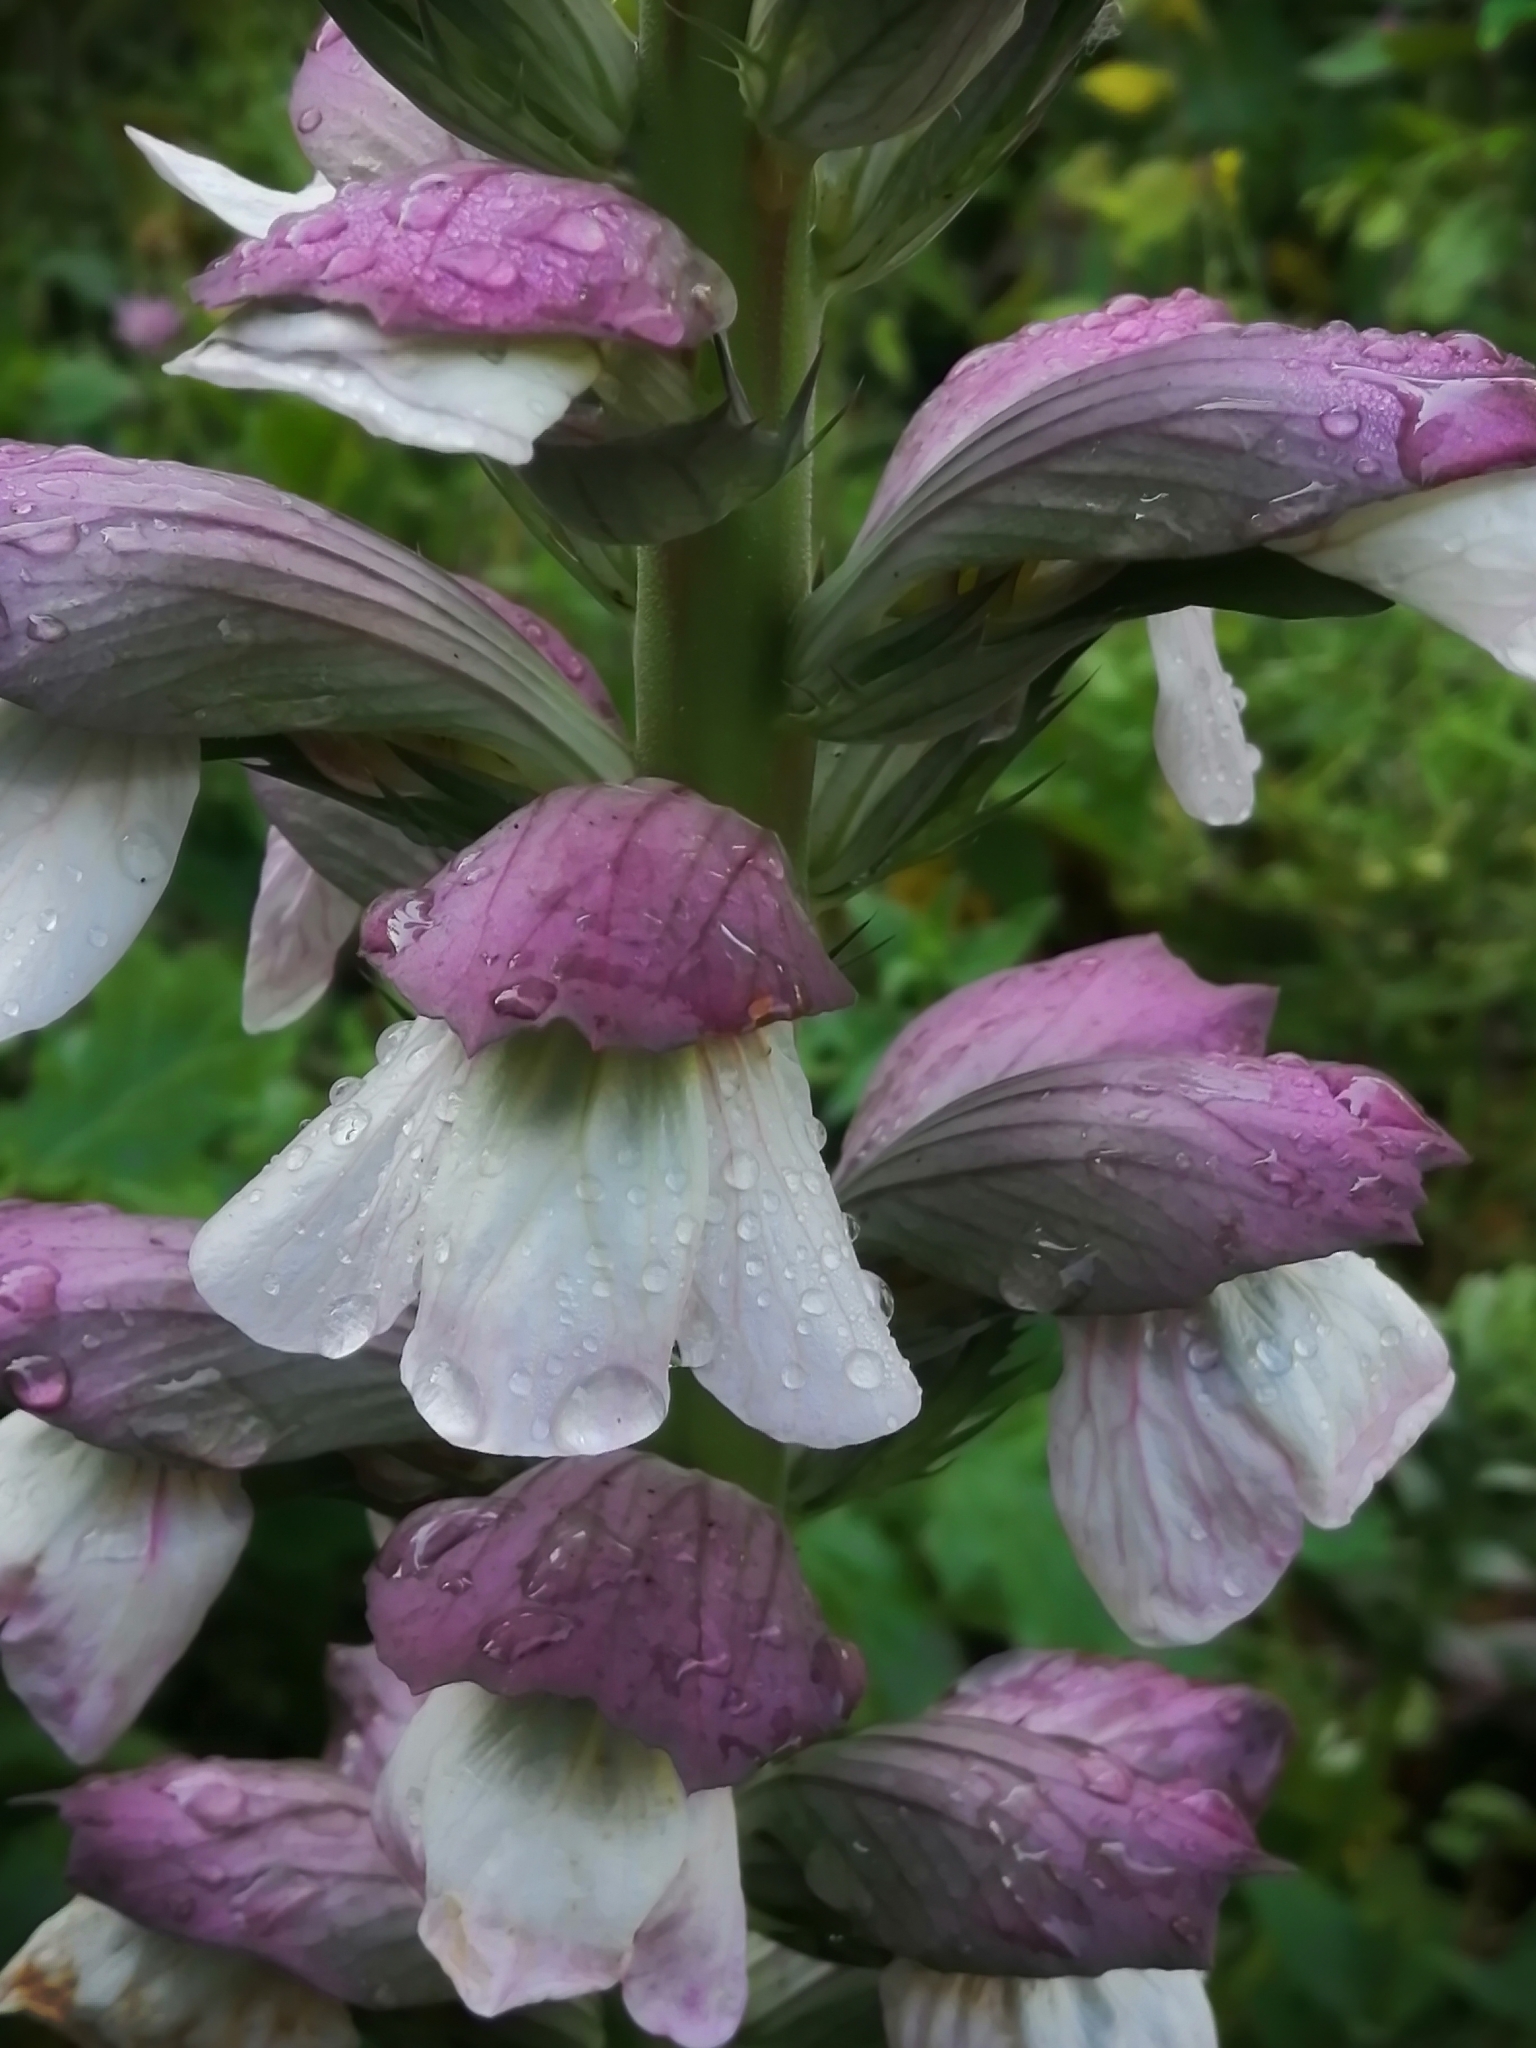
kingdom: Plantae
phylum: Tracheophyta
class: Magnoliopsida
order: Lamiales
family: Acanthaceae
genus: Acanthus
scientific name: Acanthus mollis
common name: Bear's-breech
